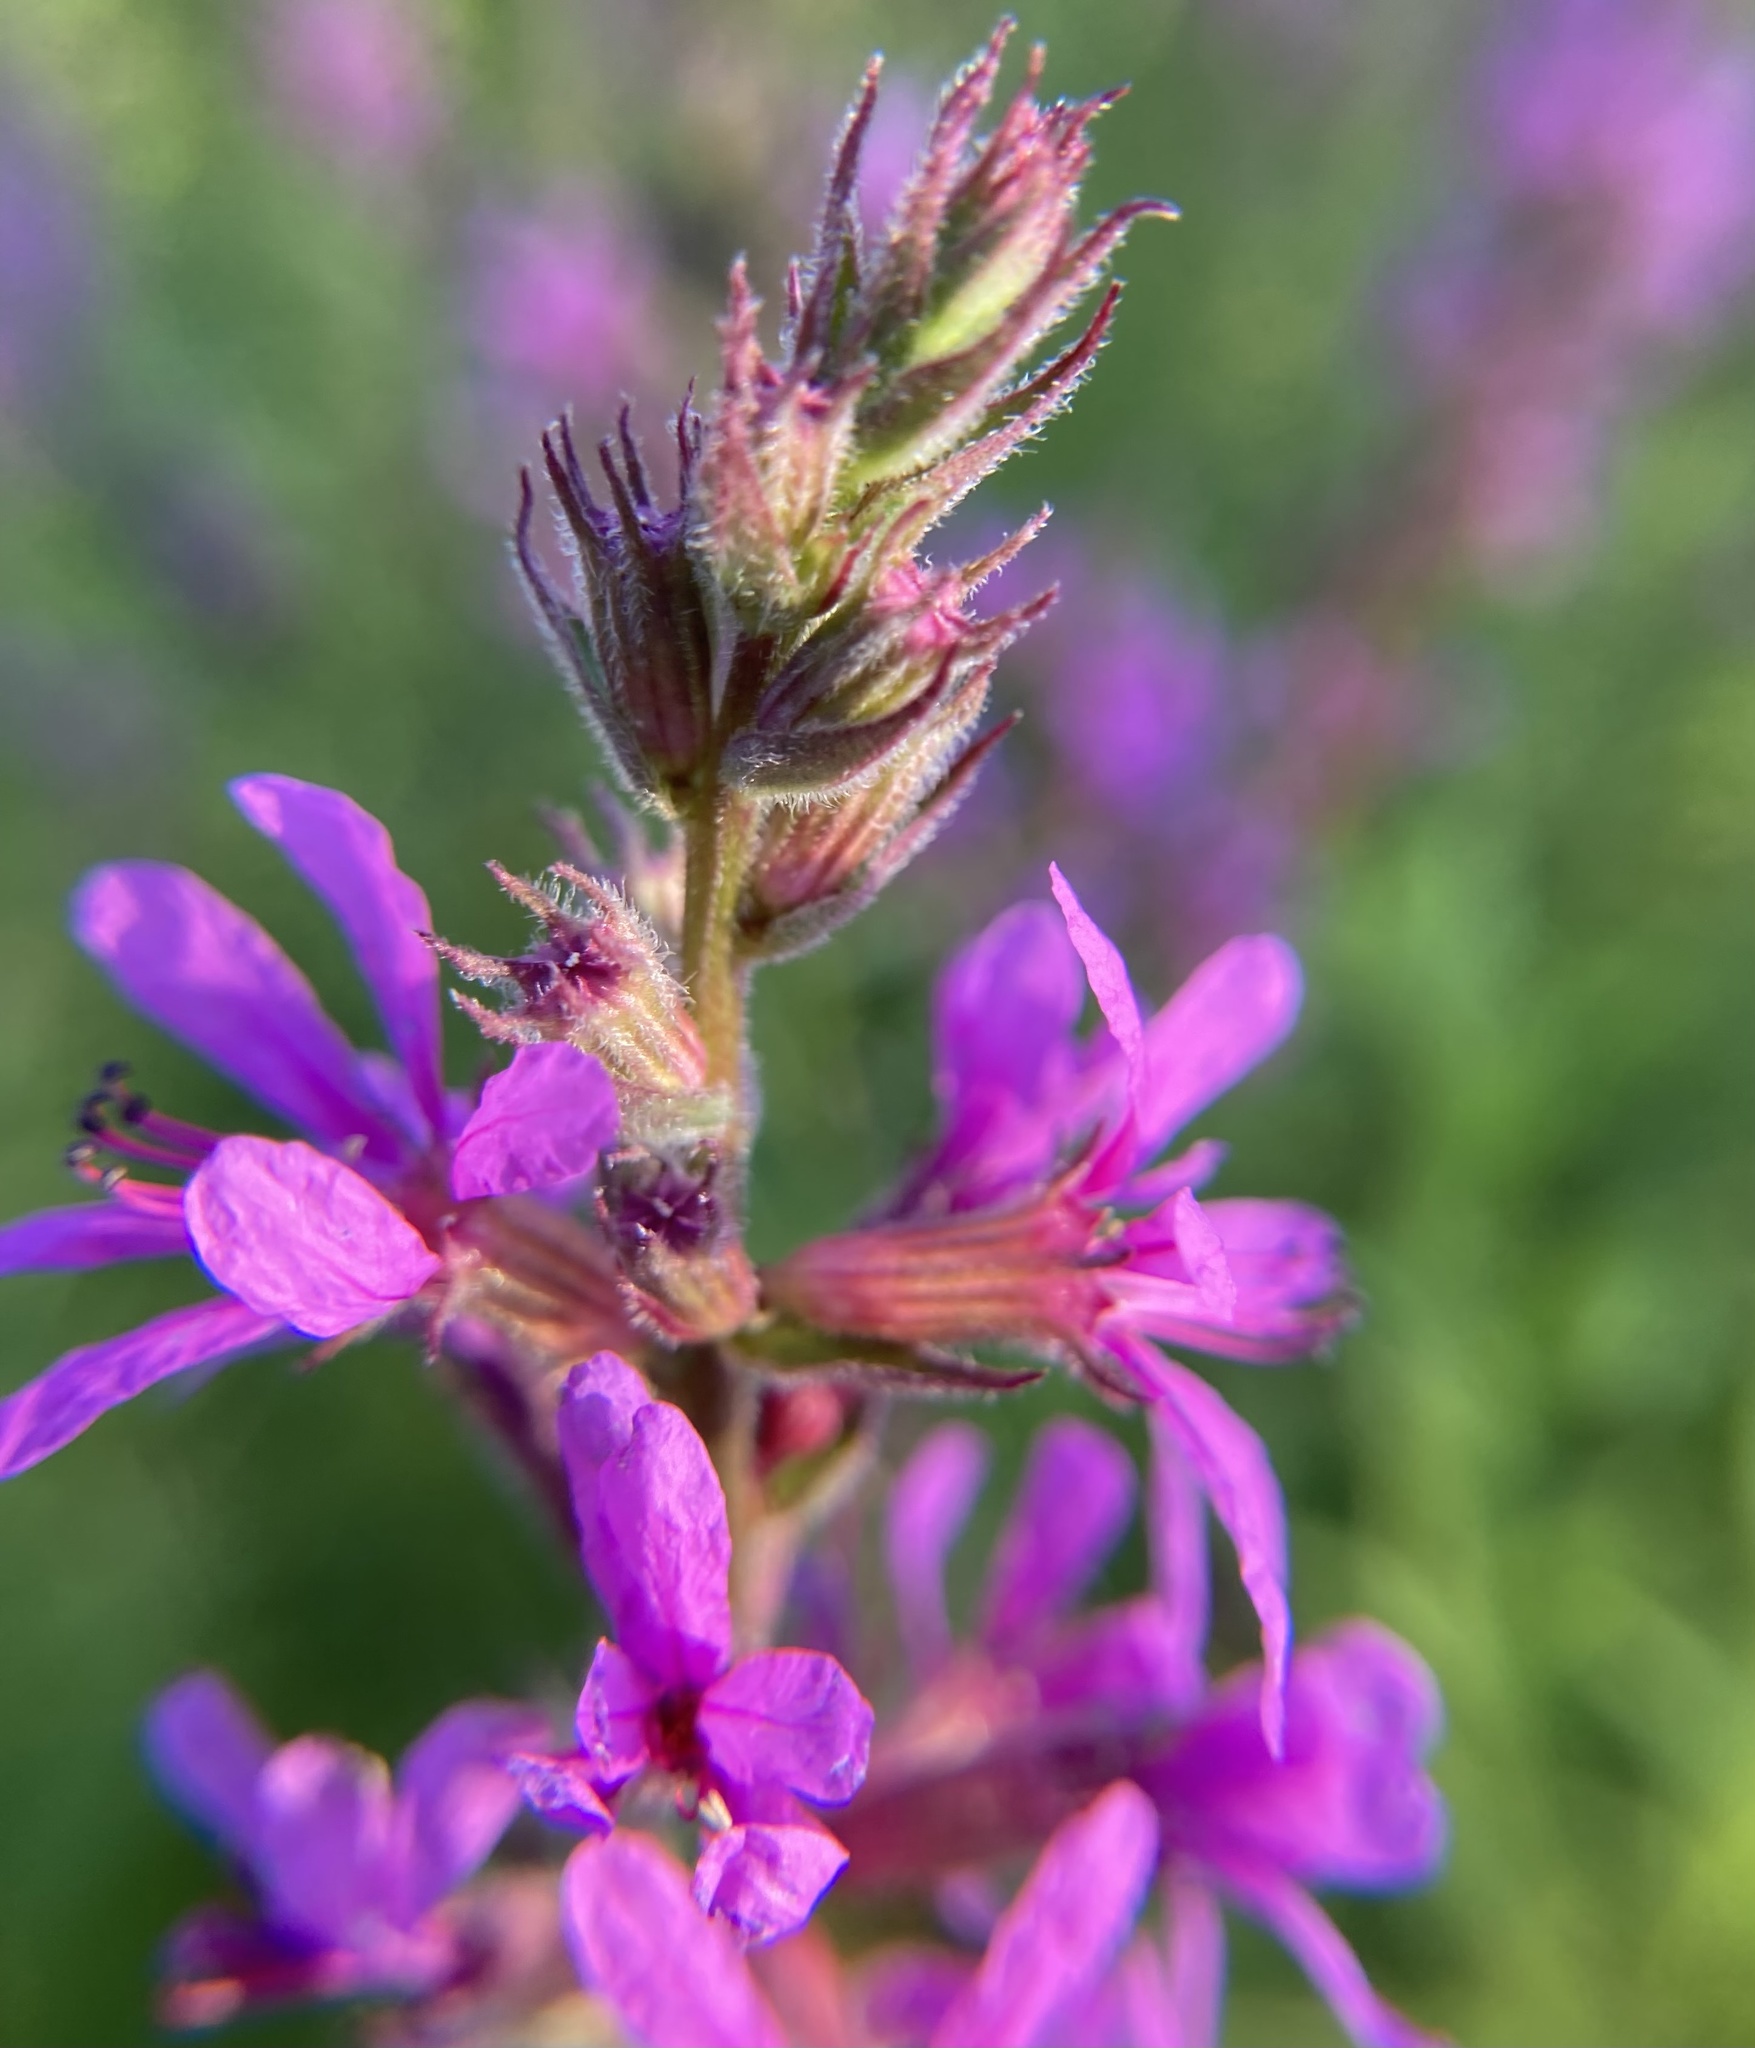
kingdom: Plantae
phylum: Tracheophyta
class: Magnoliopsida
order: Myrtales
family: Lythraceae
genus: Lythrum
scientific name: Lythrum salicaria
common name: Purple loosestrife
